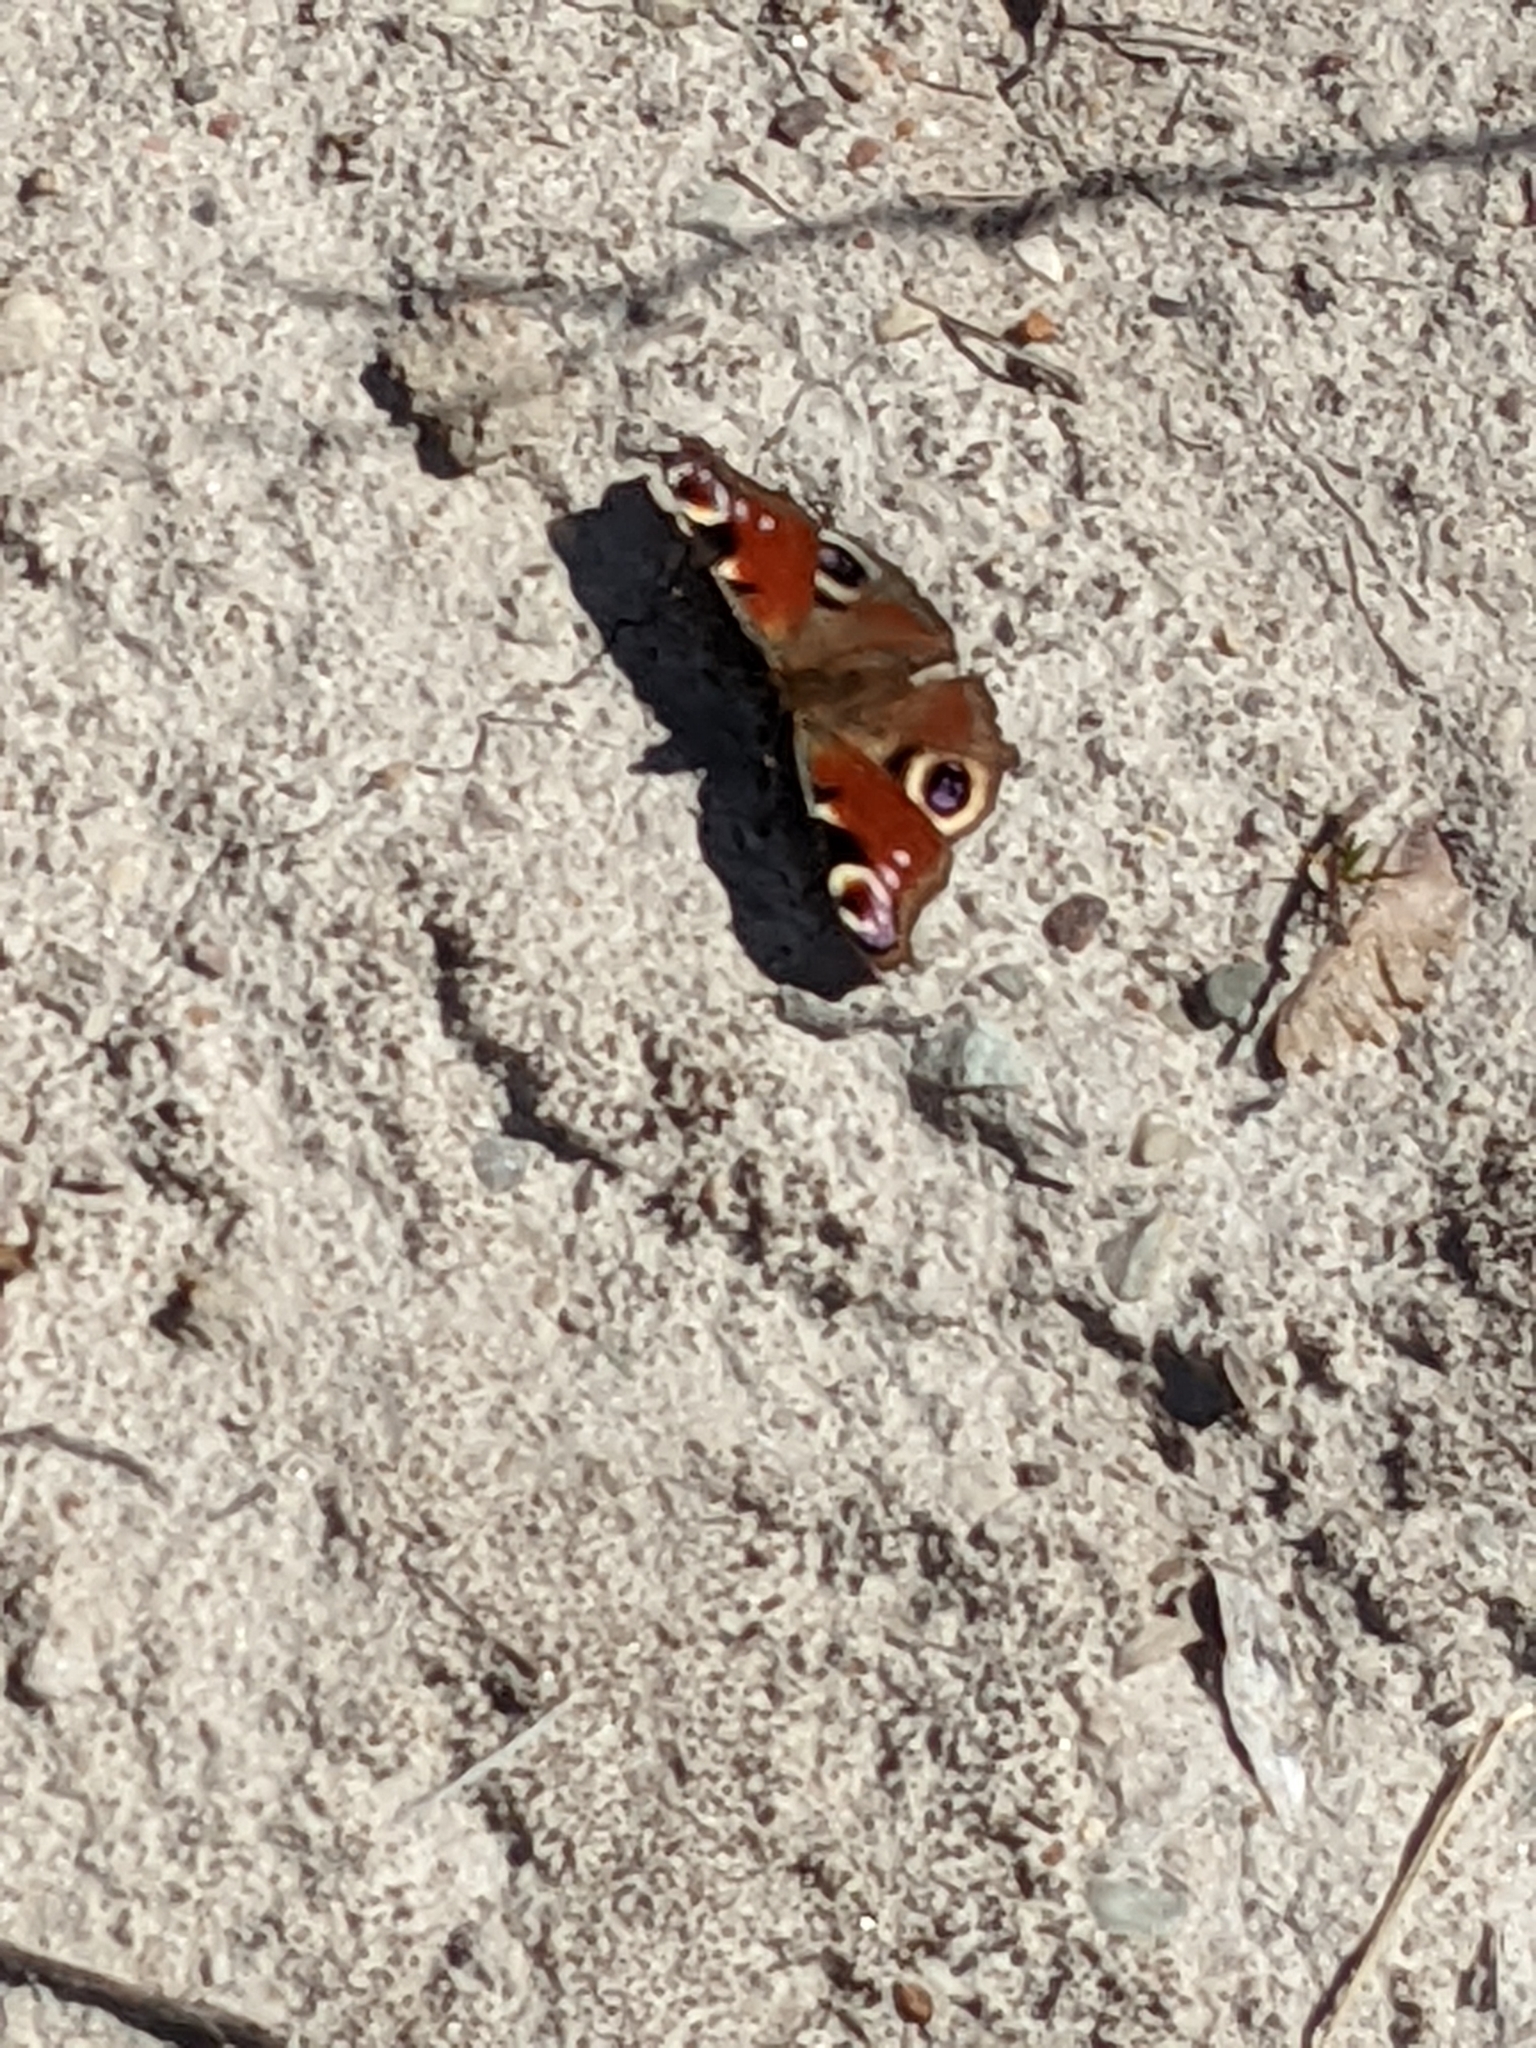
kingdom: Animalia
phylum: Arthropoda
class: Insecta
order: Lepidoptera
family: Nymphalidae
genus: Aglais
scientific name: Aglais io
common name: Peacock
